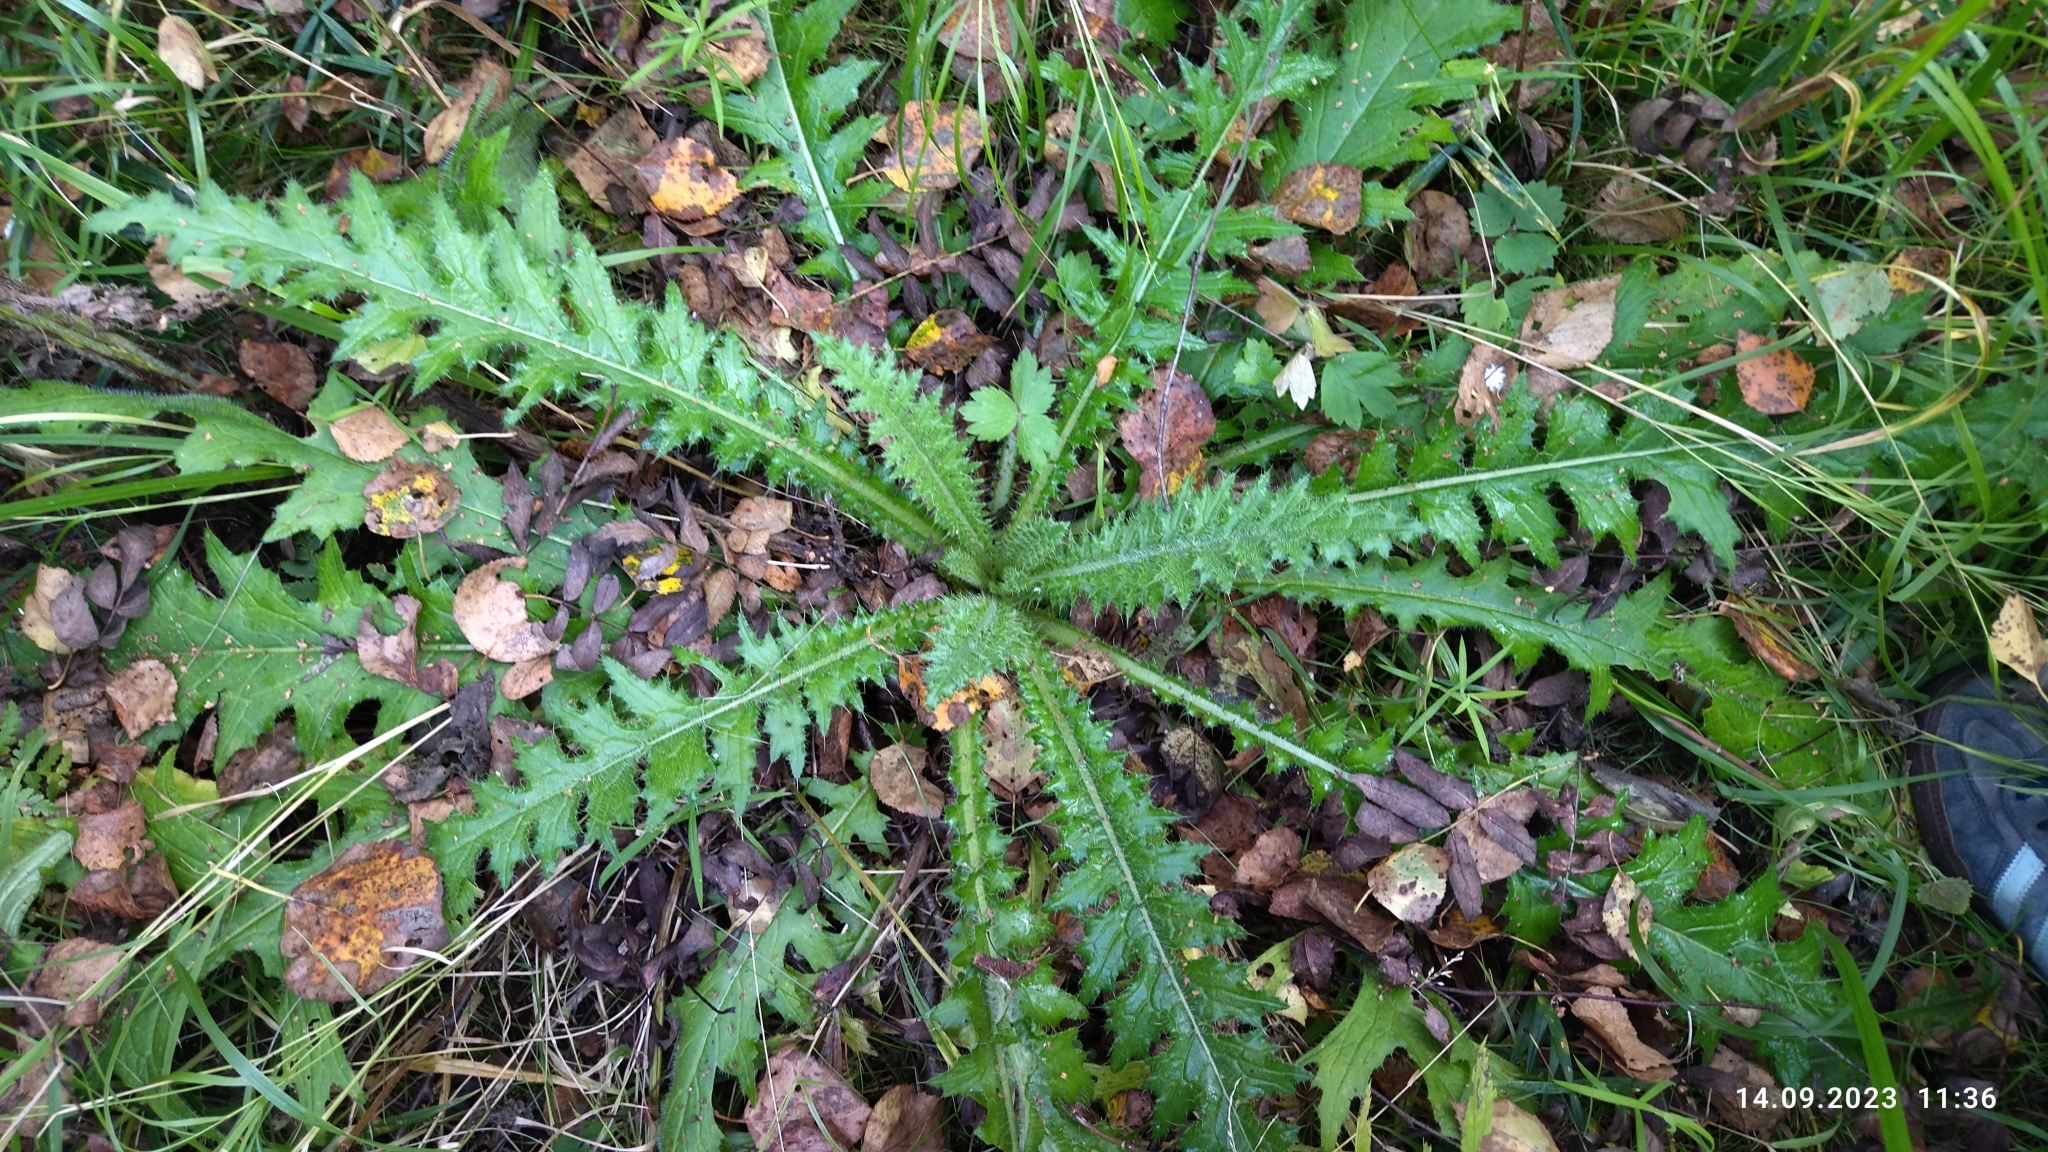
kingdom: Plantae
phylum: Tracheophyta
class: Magnoliopsida
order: Asterales
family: Asteraceae
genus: Cirsium
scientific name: Cirsium palustre
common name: Marsh thistle
